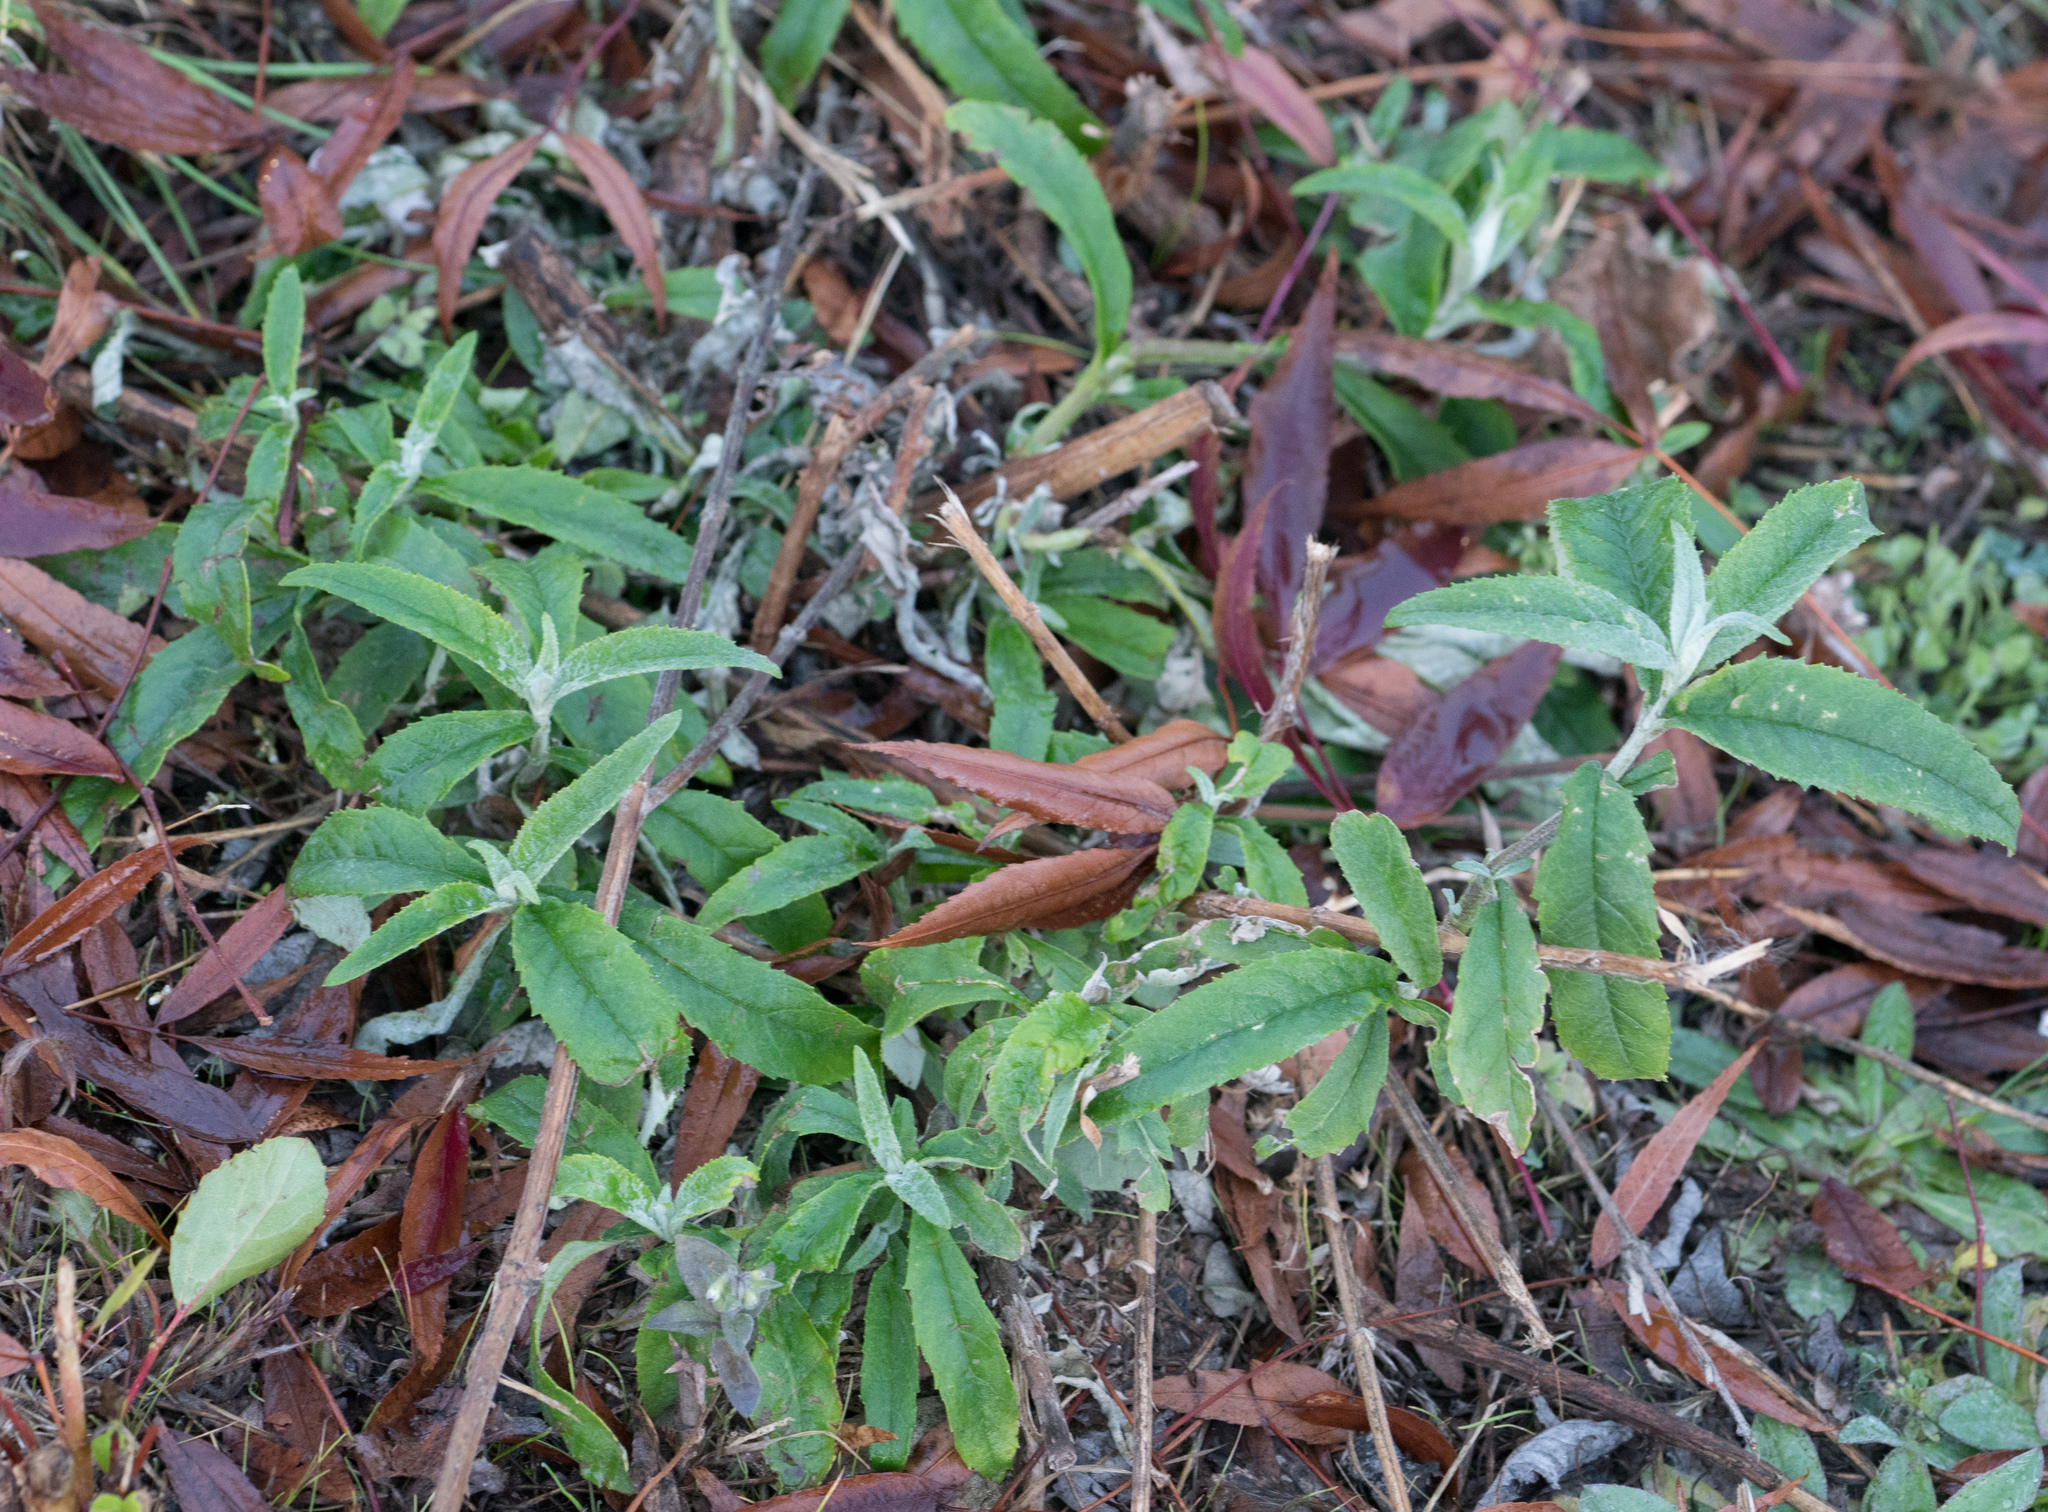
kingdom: Plantae
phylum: Tracheophyta
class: Magnoliopsida
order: Lamiales
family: Scrophulariaceae
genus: Buddleja
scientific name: Buddleja davidii
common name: Butterfly-bush
